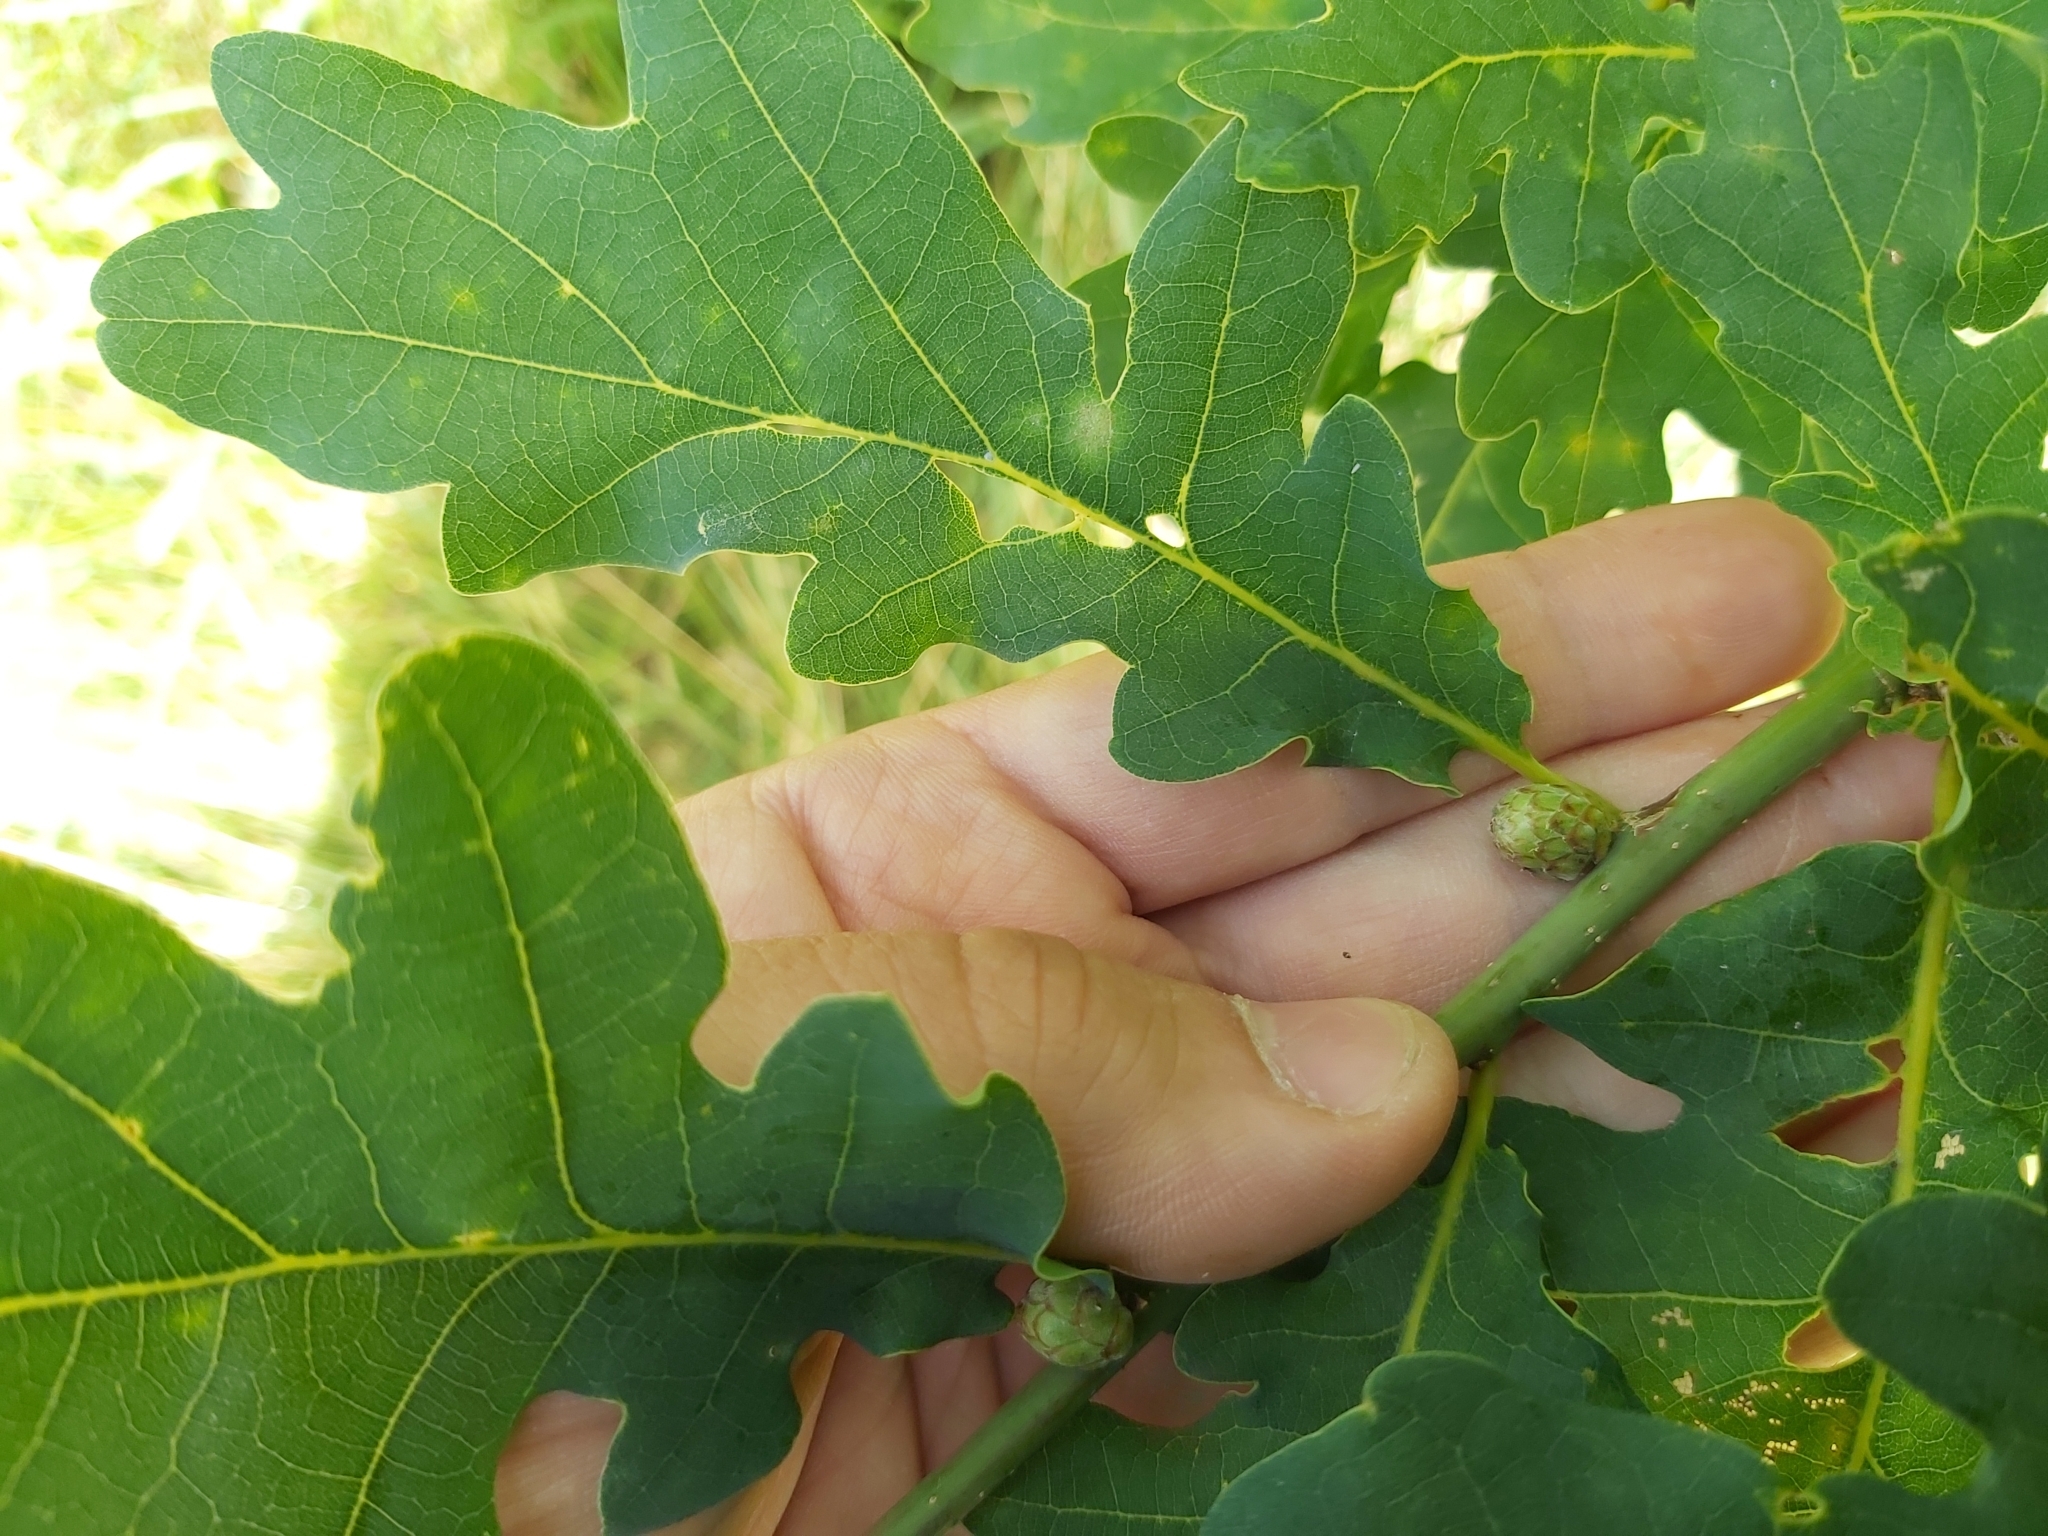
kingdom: Animalia
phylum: Arthropoda
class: Insecta
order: Hymenoptera
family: Cynipidae
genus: Andricus
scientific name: Andricus foecundatrix
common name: Artichoke gall
